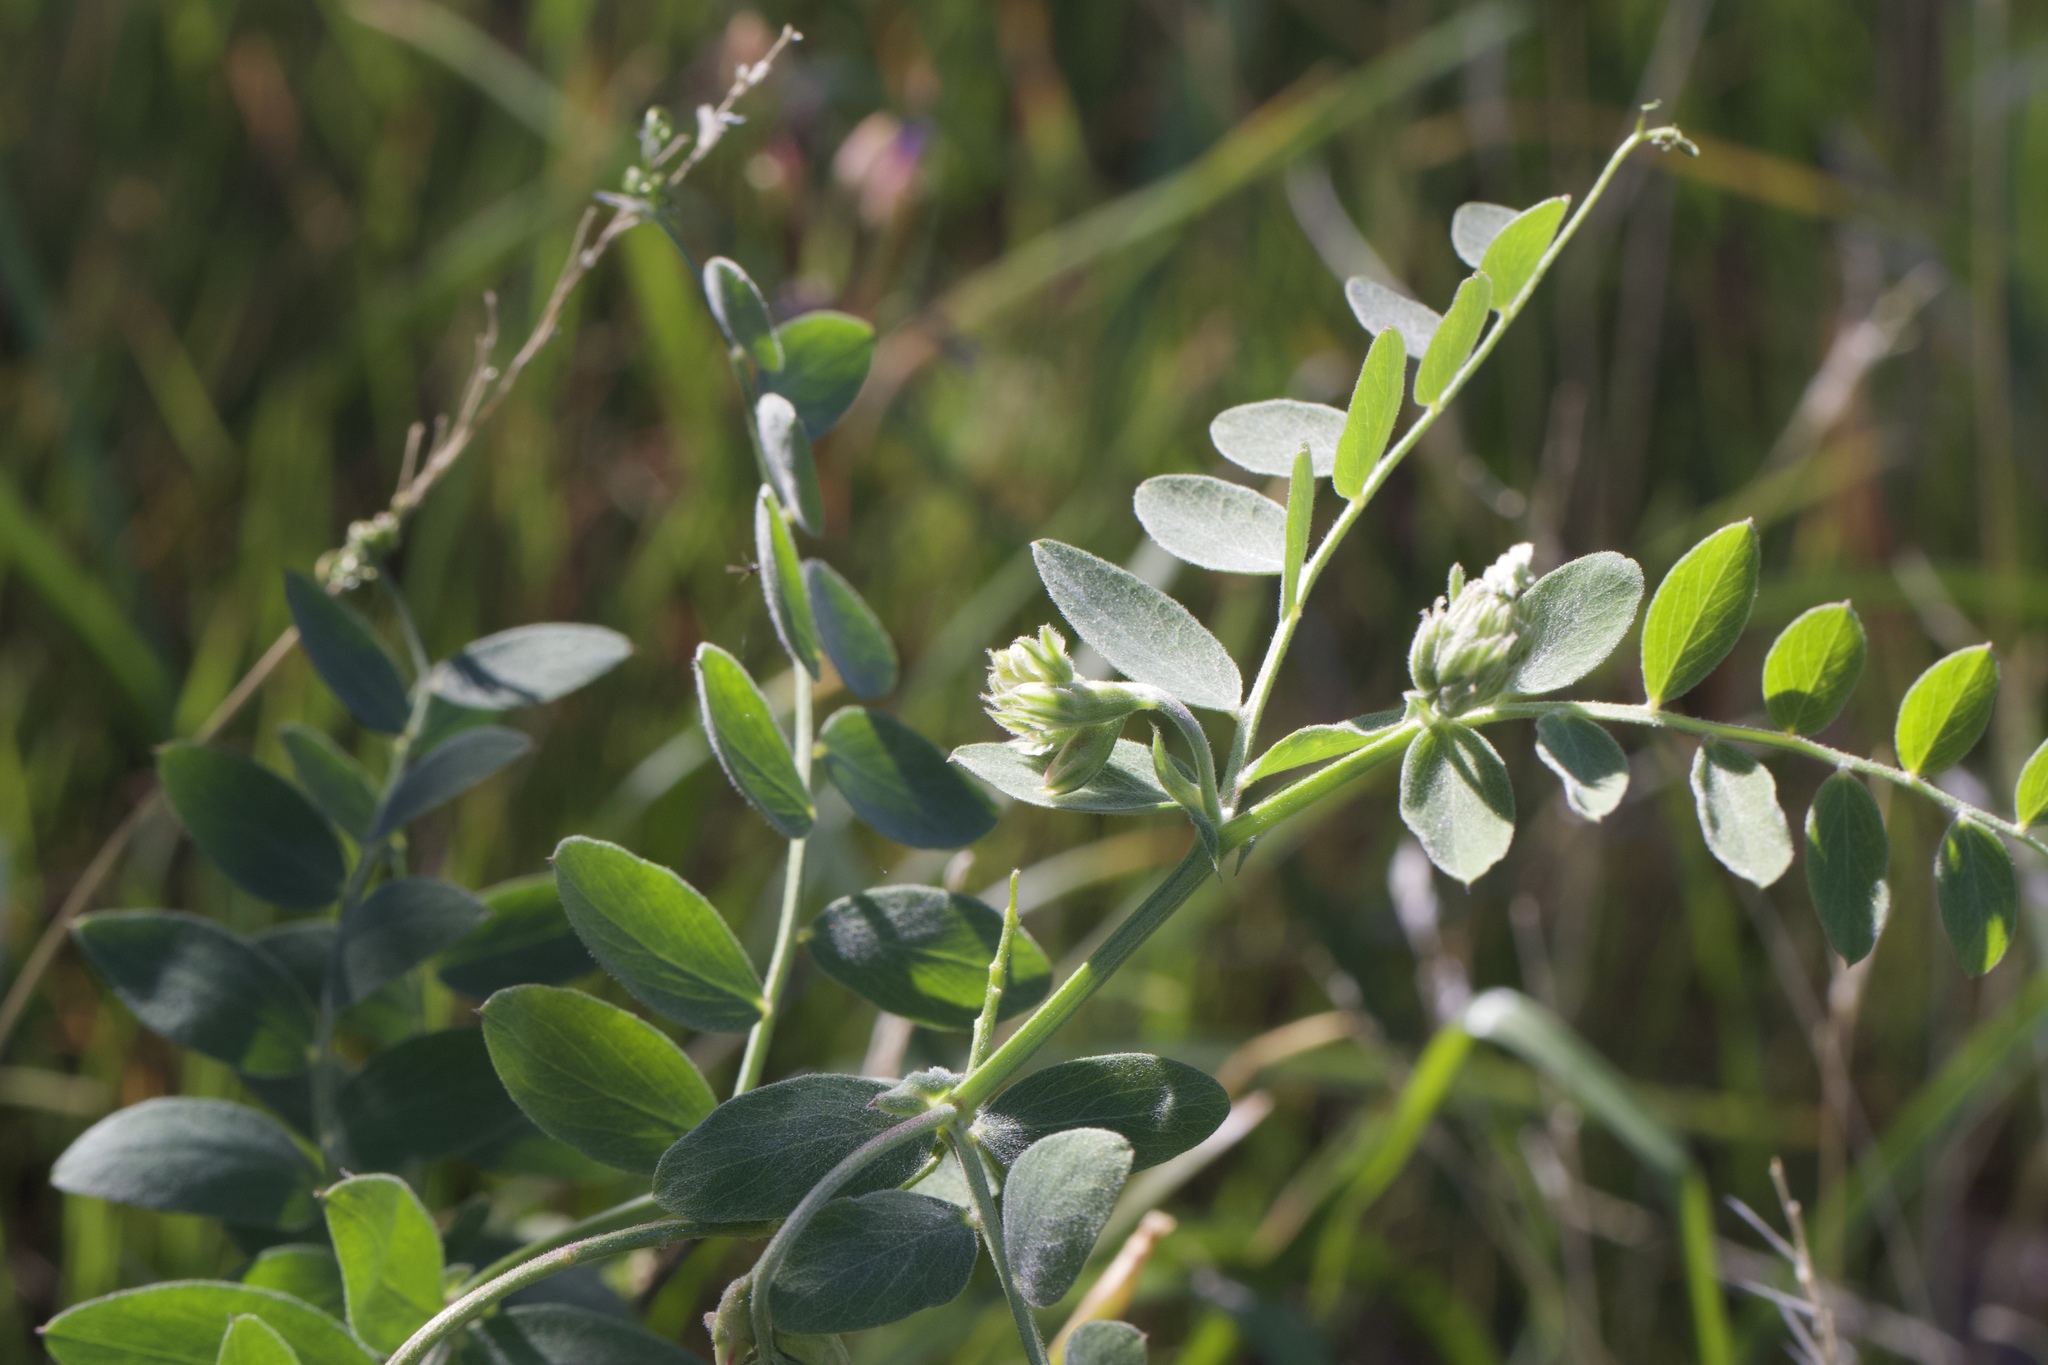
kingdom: Plantae
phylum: Tracheophyta
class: Magnoliopsida
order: Fabales
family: Fabaceae
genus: Lathyrus
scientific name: Lathyrus vestitus
